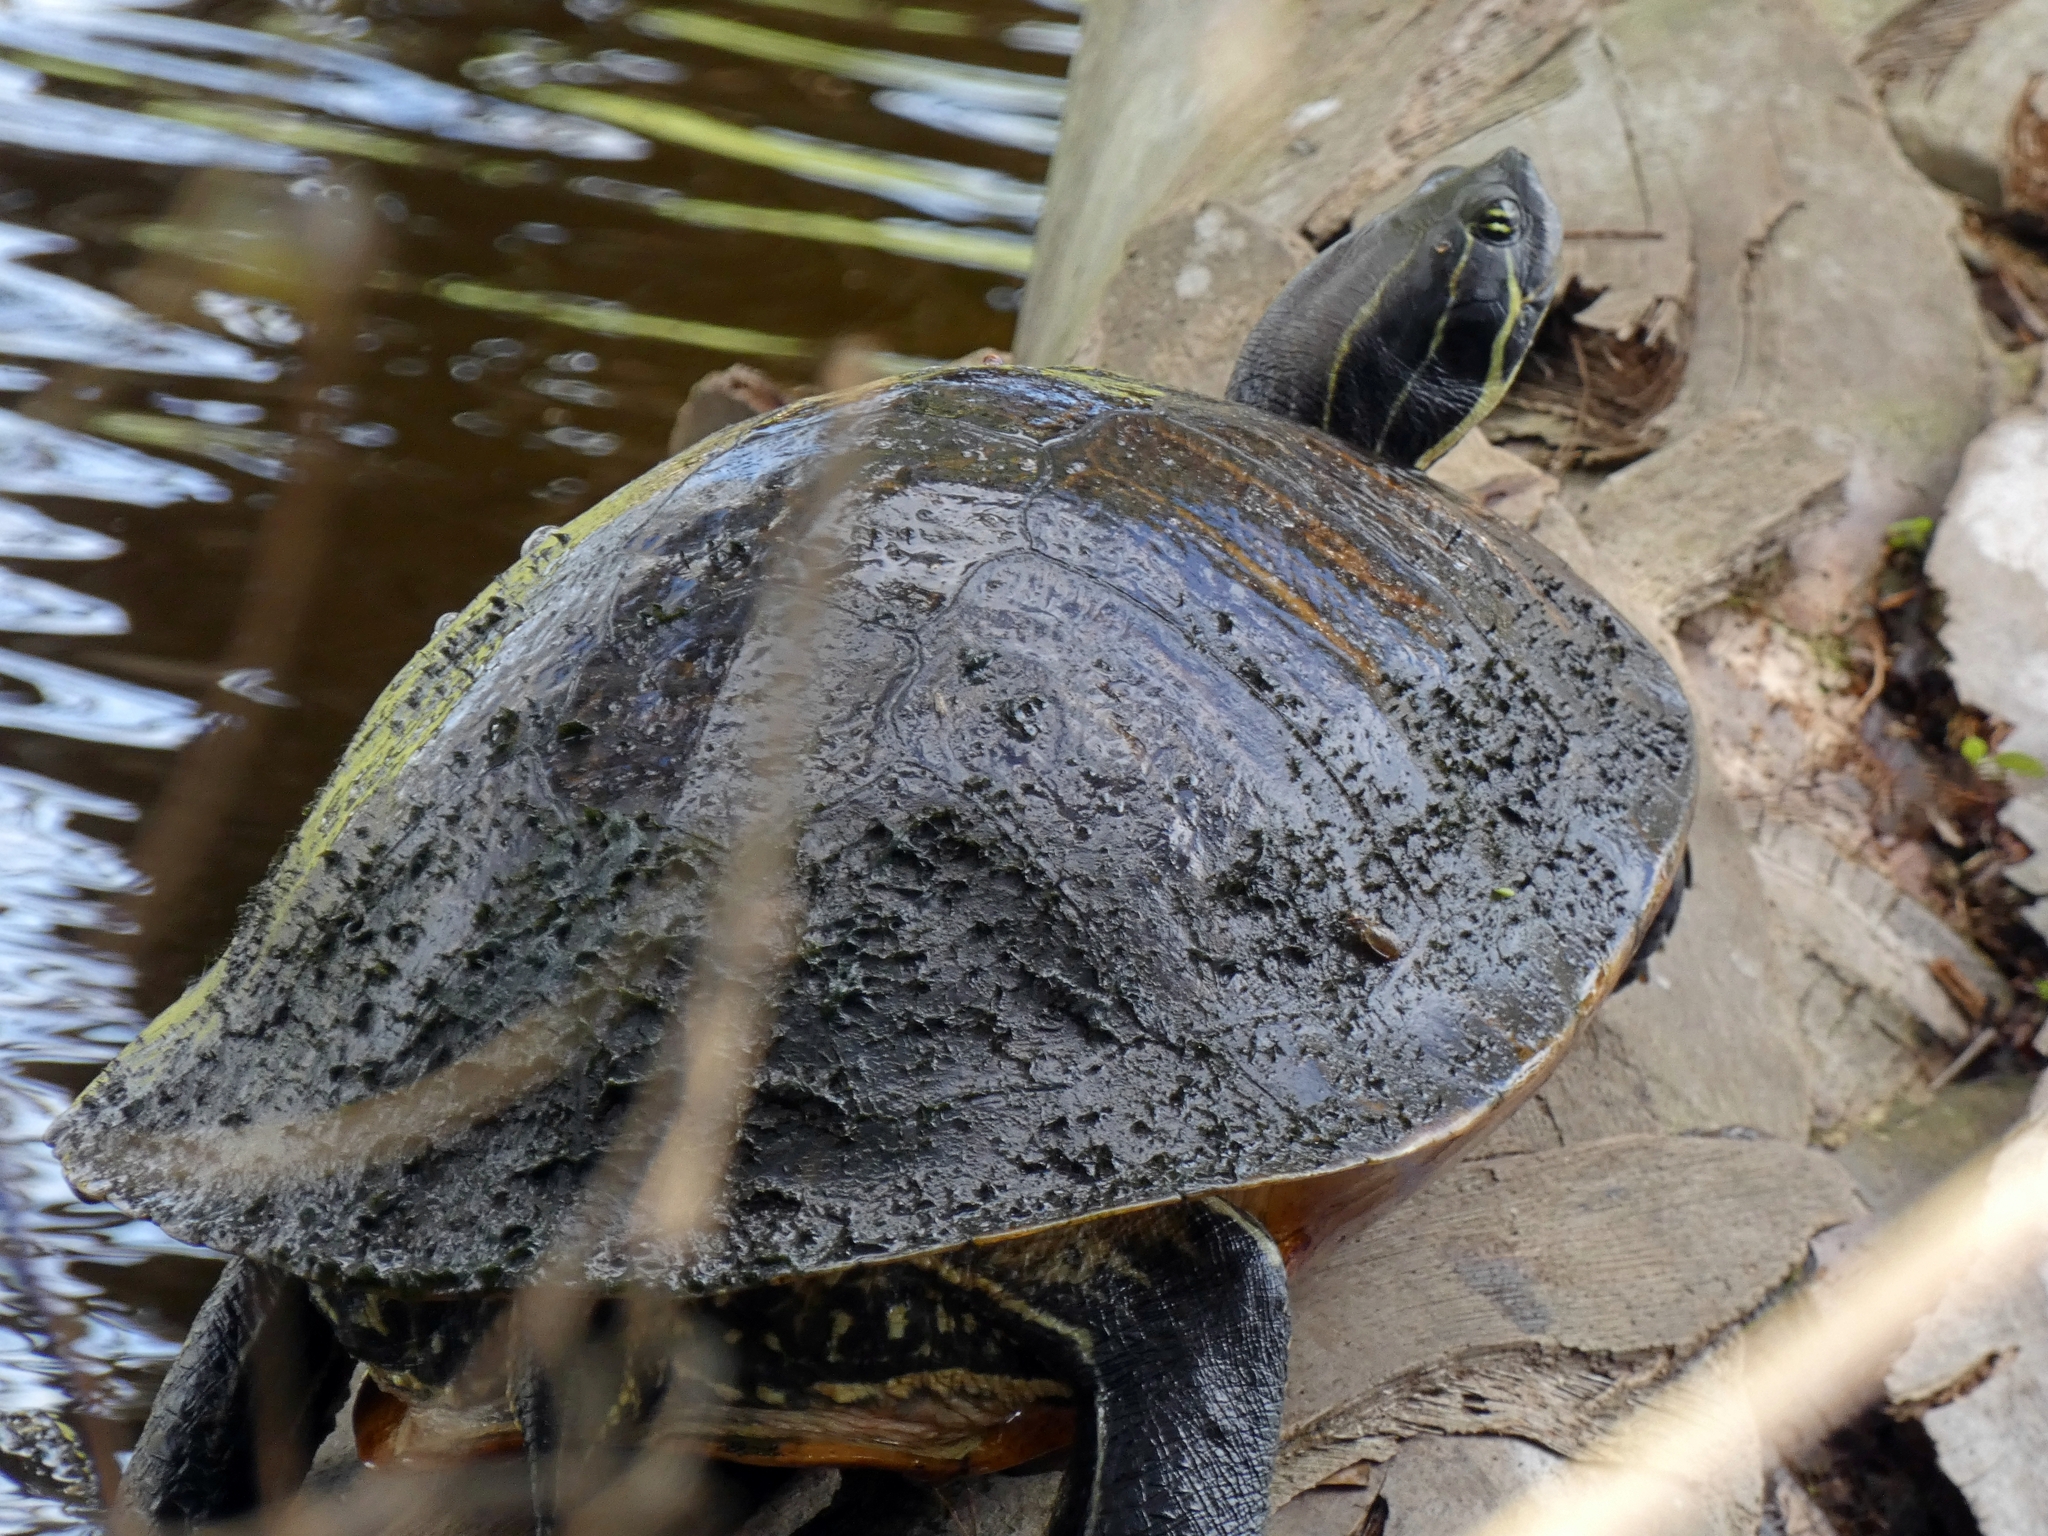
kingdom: Animalia
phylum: Chordata
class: Testudines
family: Emydidae
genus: Pseudemys
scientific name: Pseudemys peninsularis
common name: Peninsula cooter
